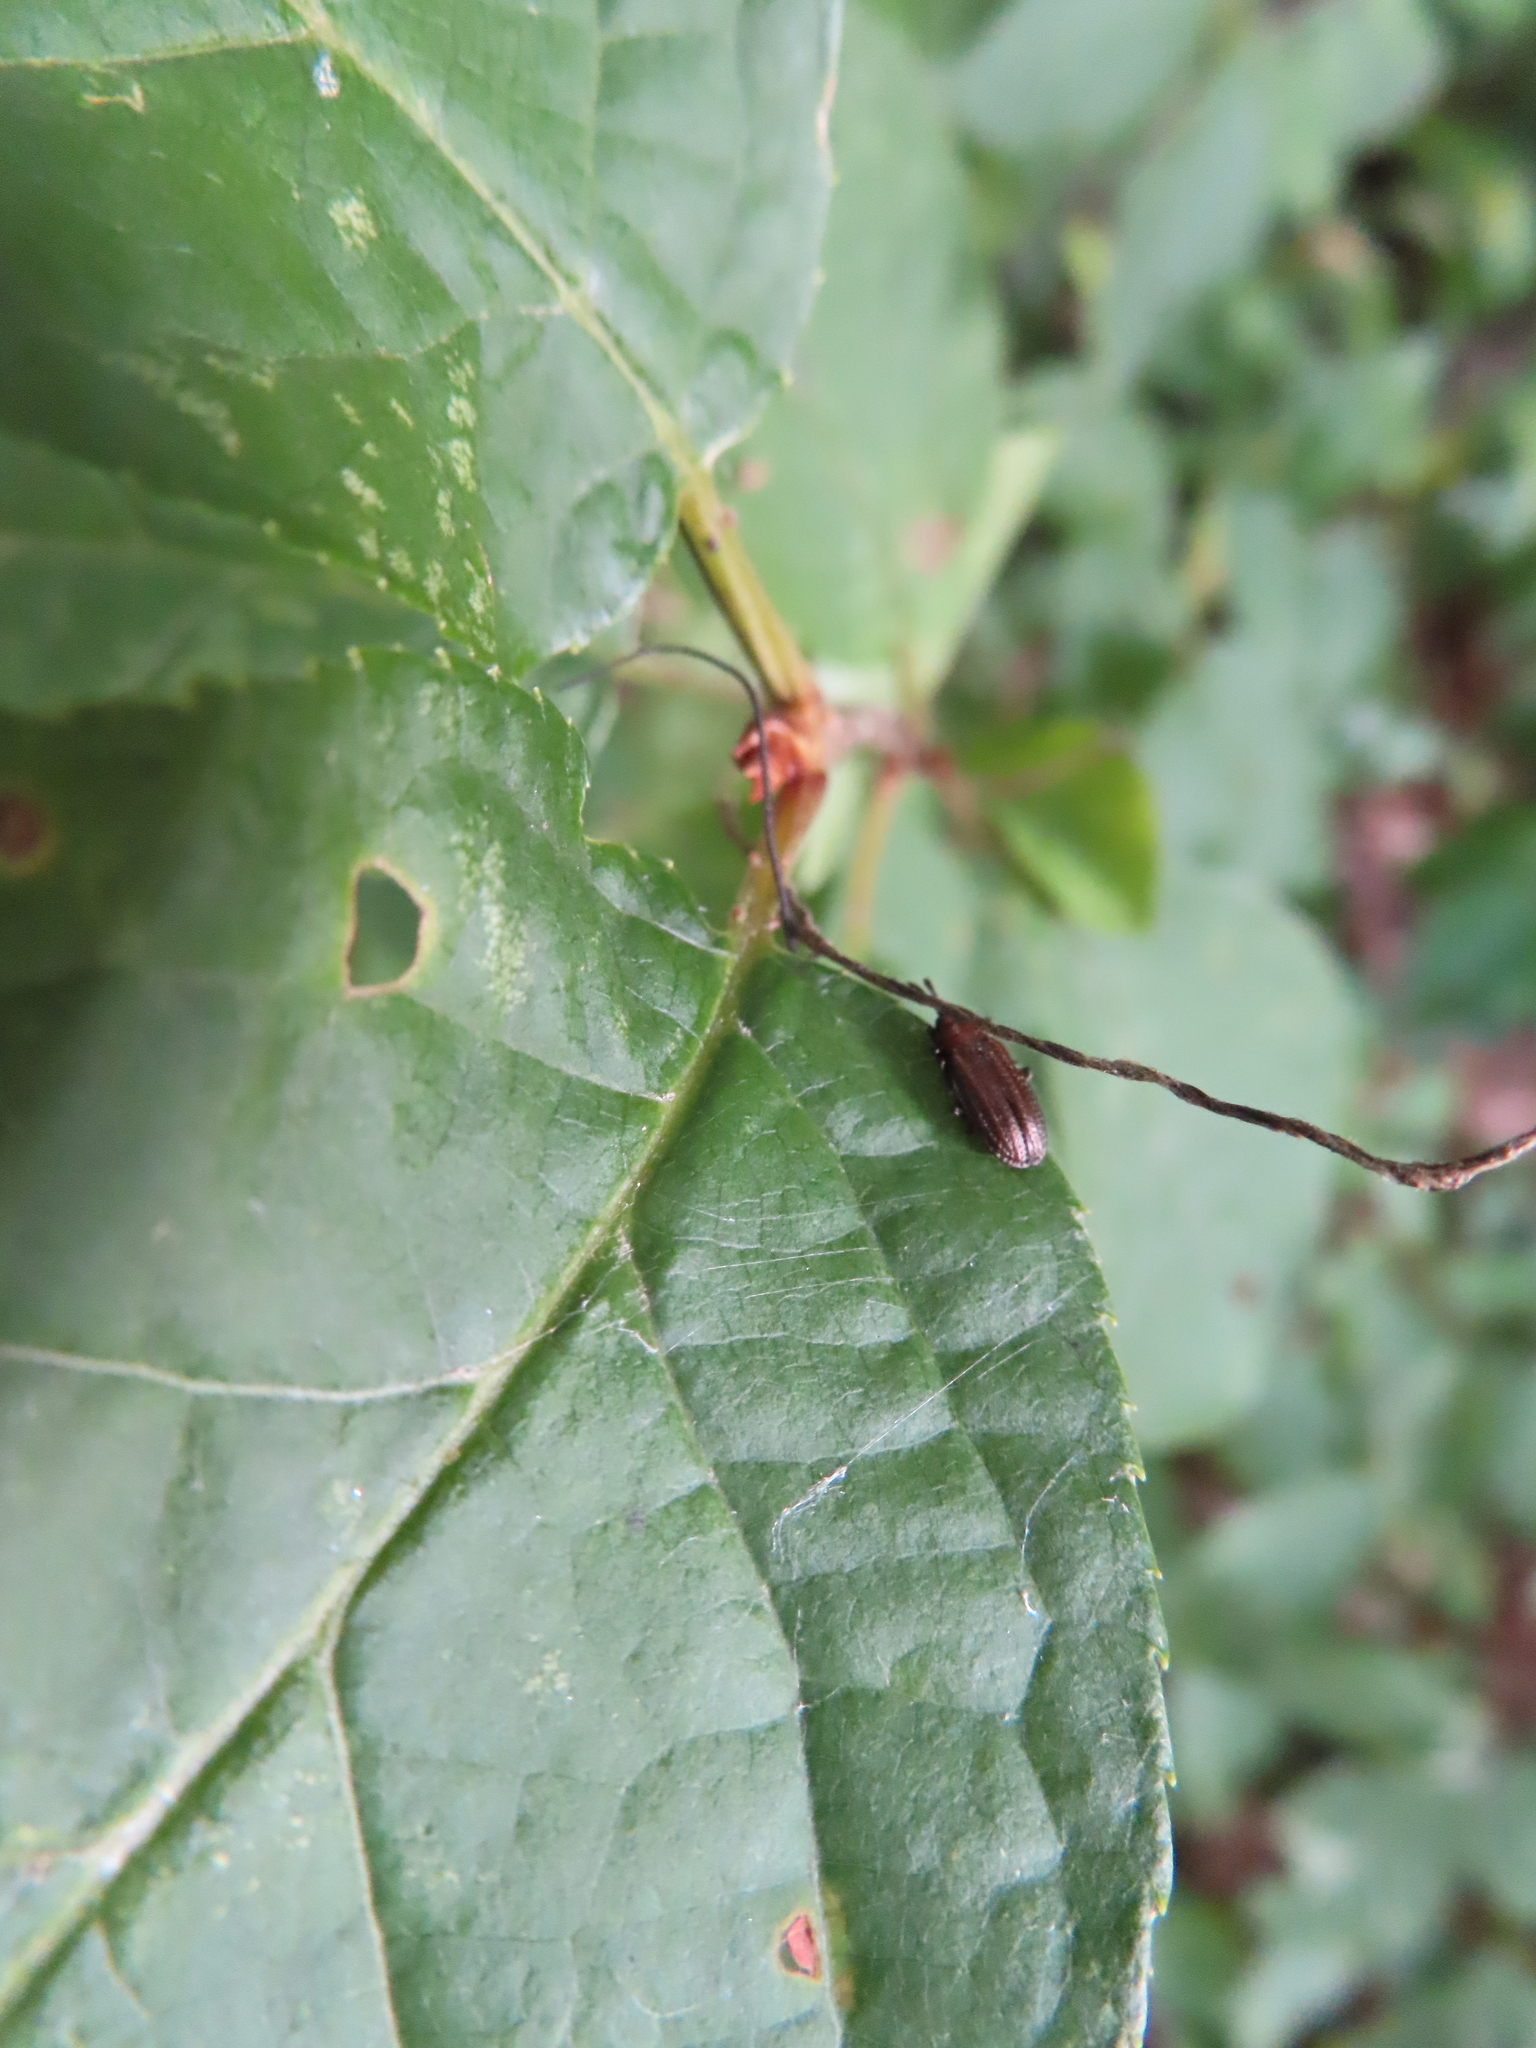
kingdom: Animalia
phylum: Arthropoda
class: Insecta
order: Coleoptera
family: Chrysomelidae
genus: Microrhopala
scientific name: Microrhopala vittata
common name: Goldenrod leaf miner beetle
